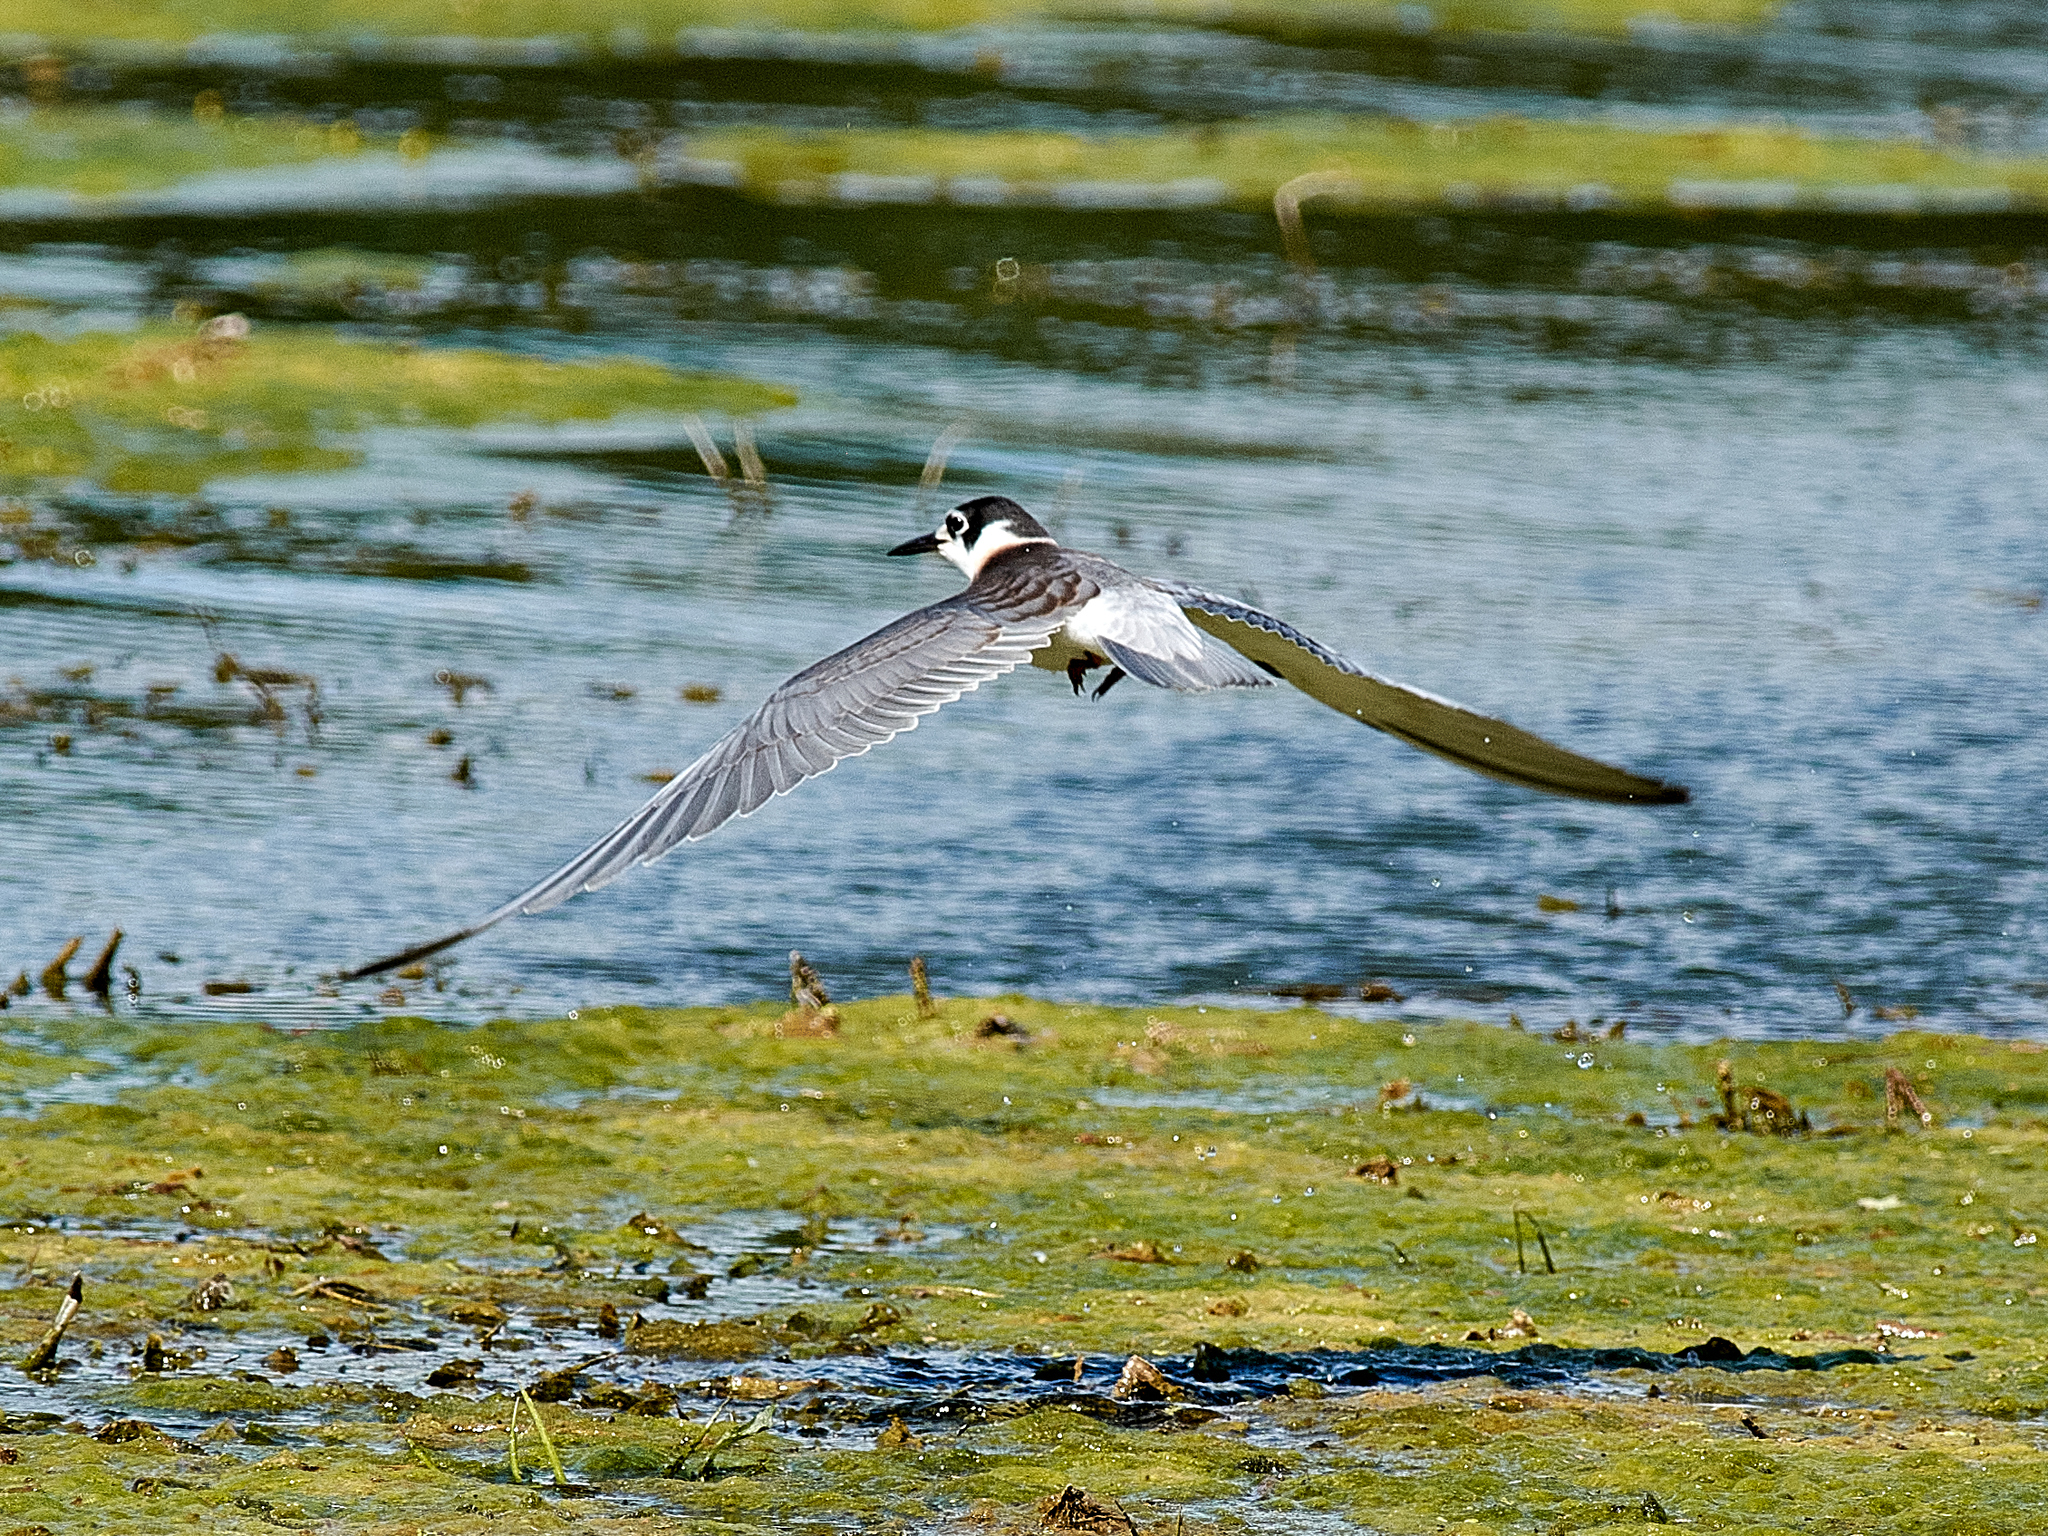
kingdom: Animalia
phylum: Chordata
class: Aves
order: Charadriiformes
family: Laridae
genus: Chlidonias
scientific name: Chlidonias niger
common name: Black tern
